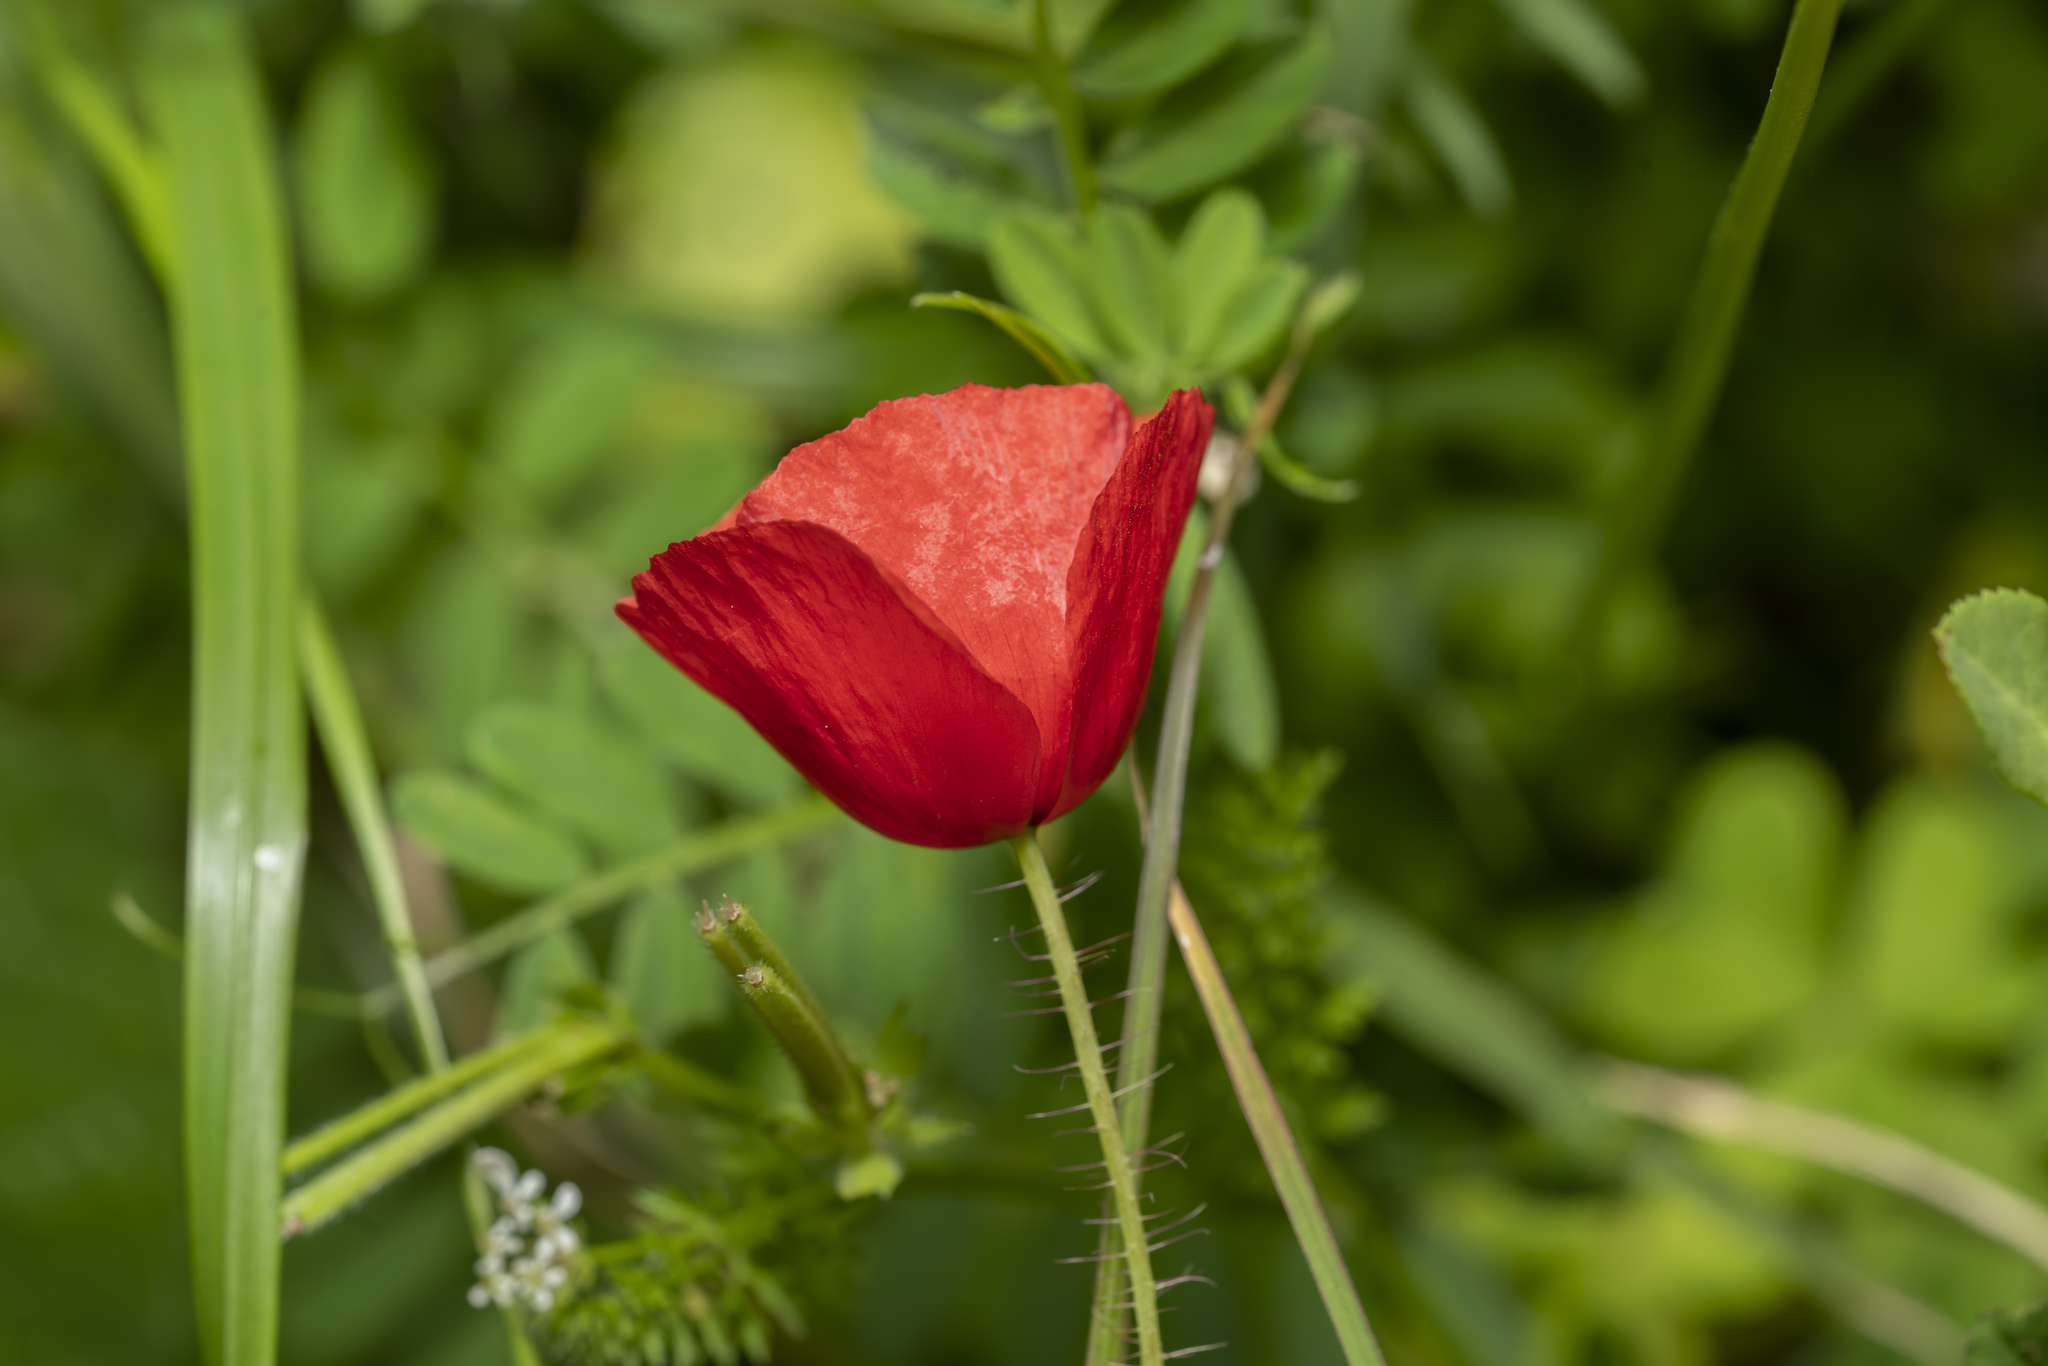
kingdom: Plantae
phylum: Tracheophyta
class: Magnoliopsida
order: Ranunculales
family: Papaveraceae
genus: Papaver
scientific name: Papaver rhoeas
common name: Corn poppy
